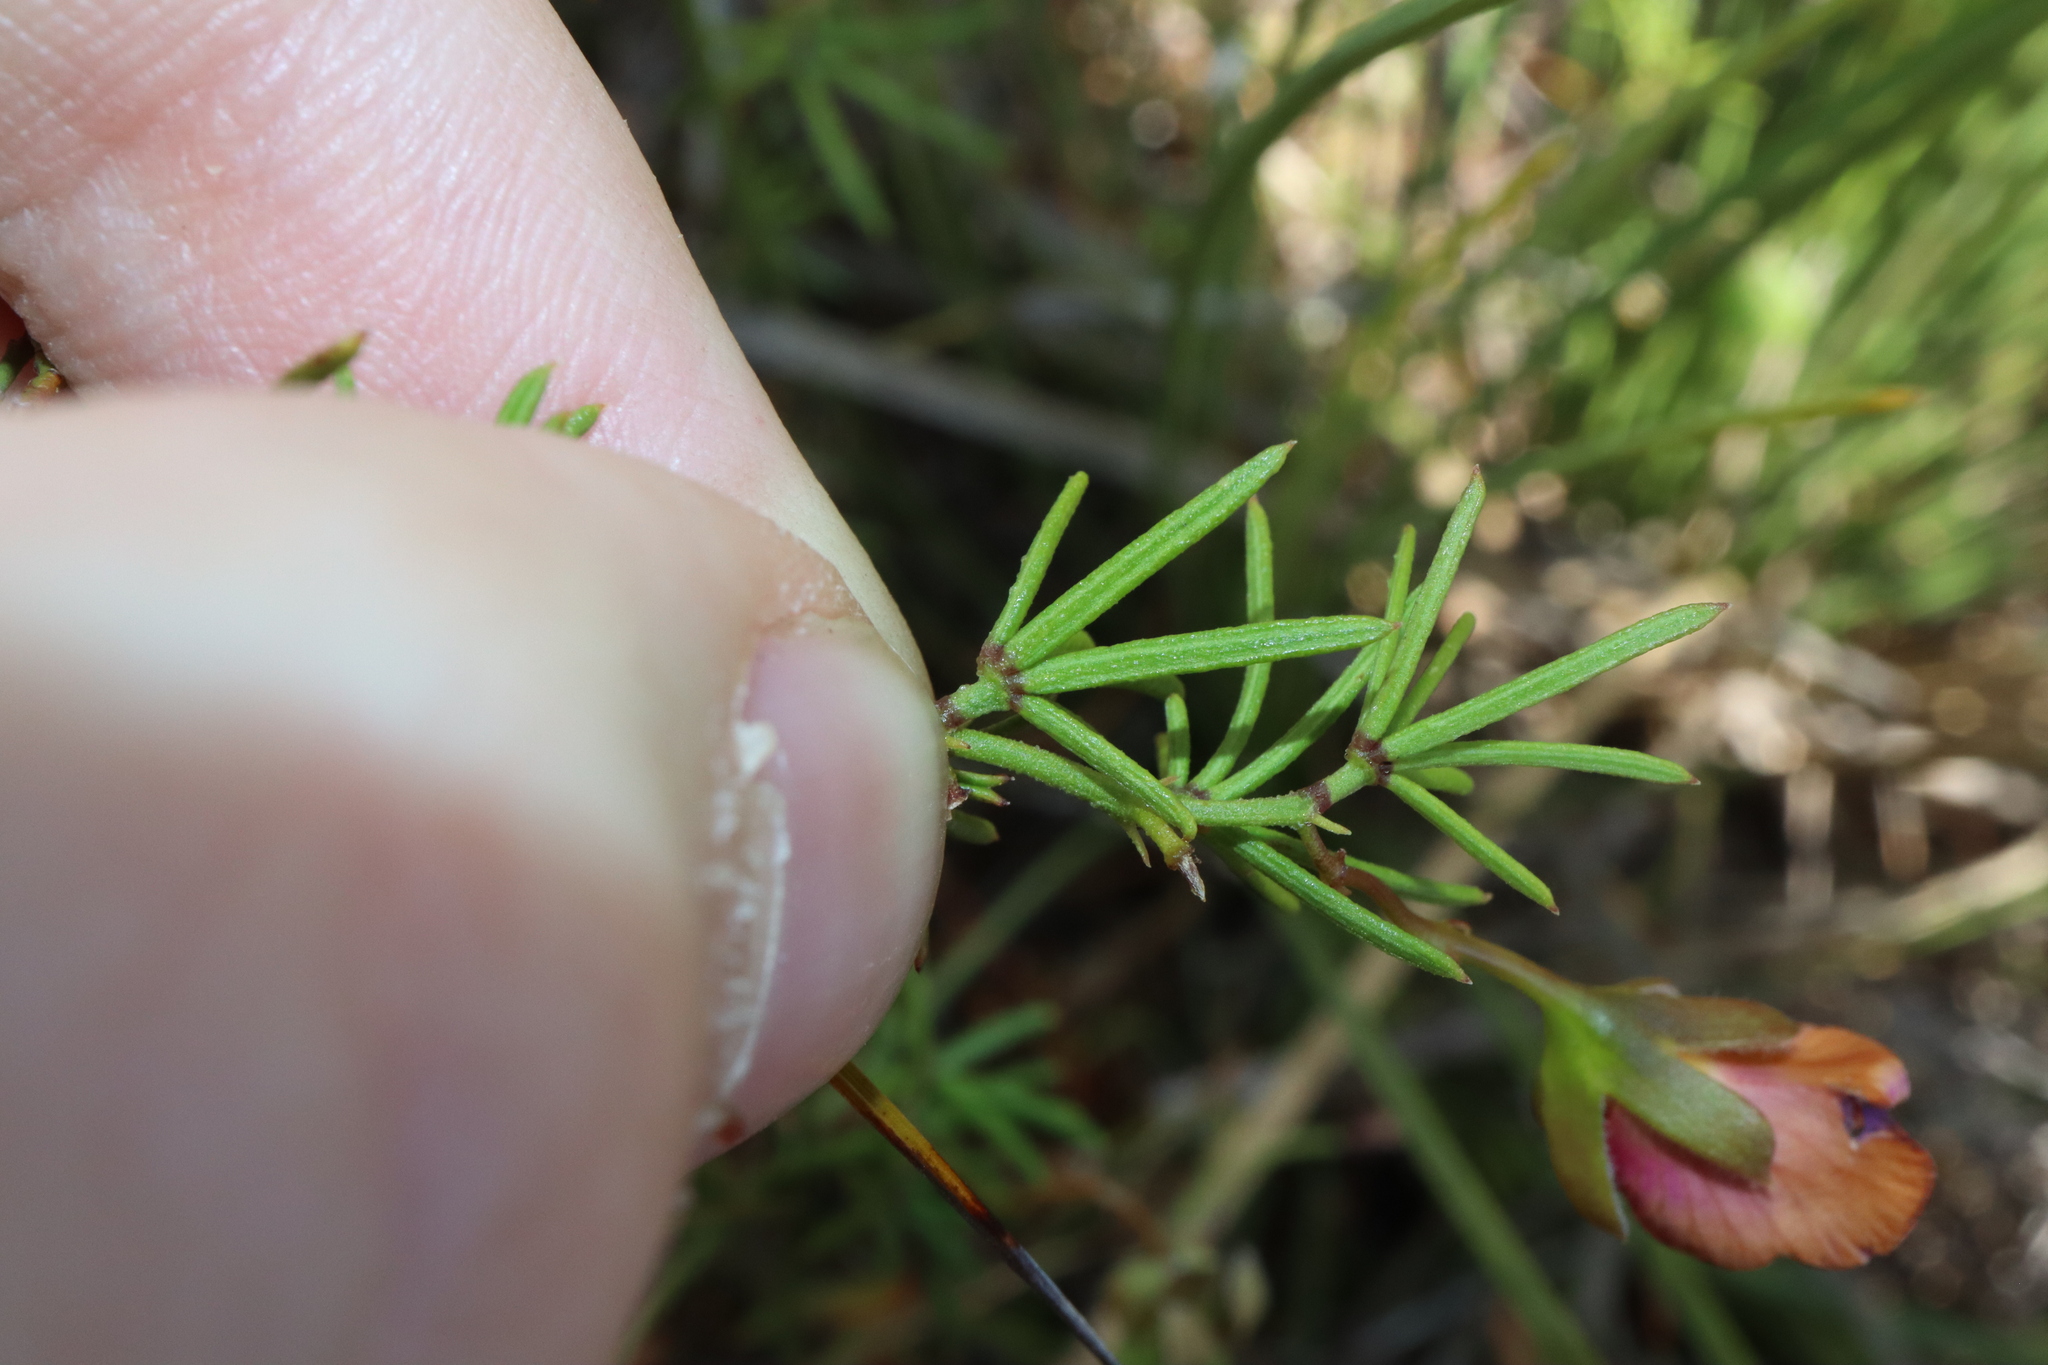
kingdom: Plantae
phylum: Tracheophyta
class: Magnoliopsida
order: Fabales
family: Fabaceae
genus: Gompholobium
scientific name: Gompholobium polymorphum
